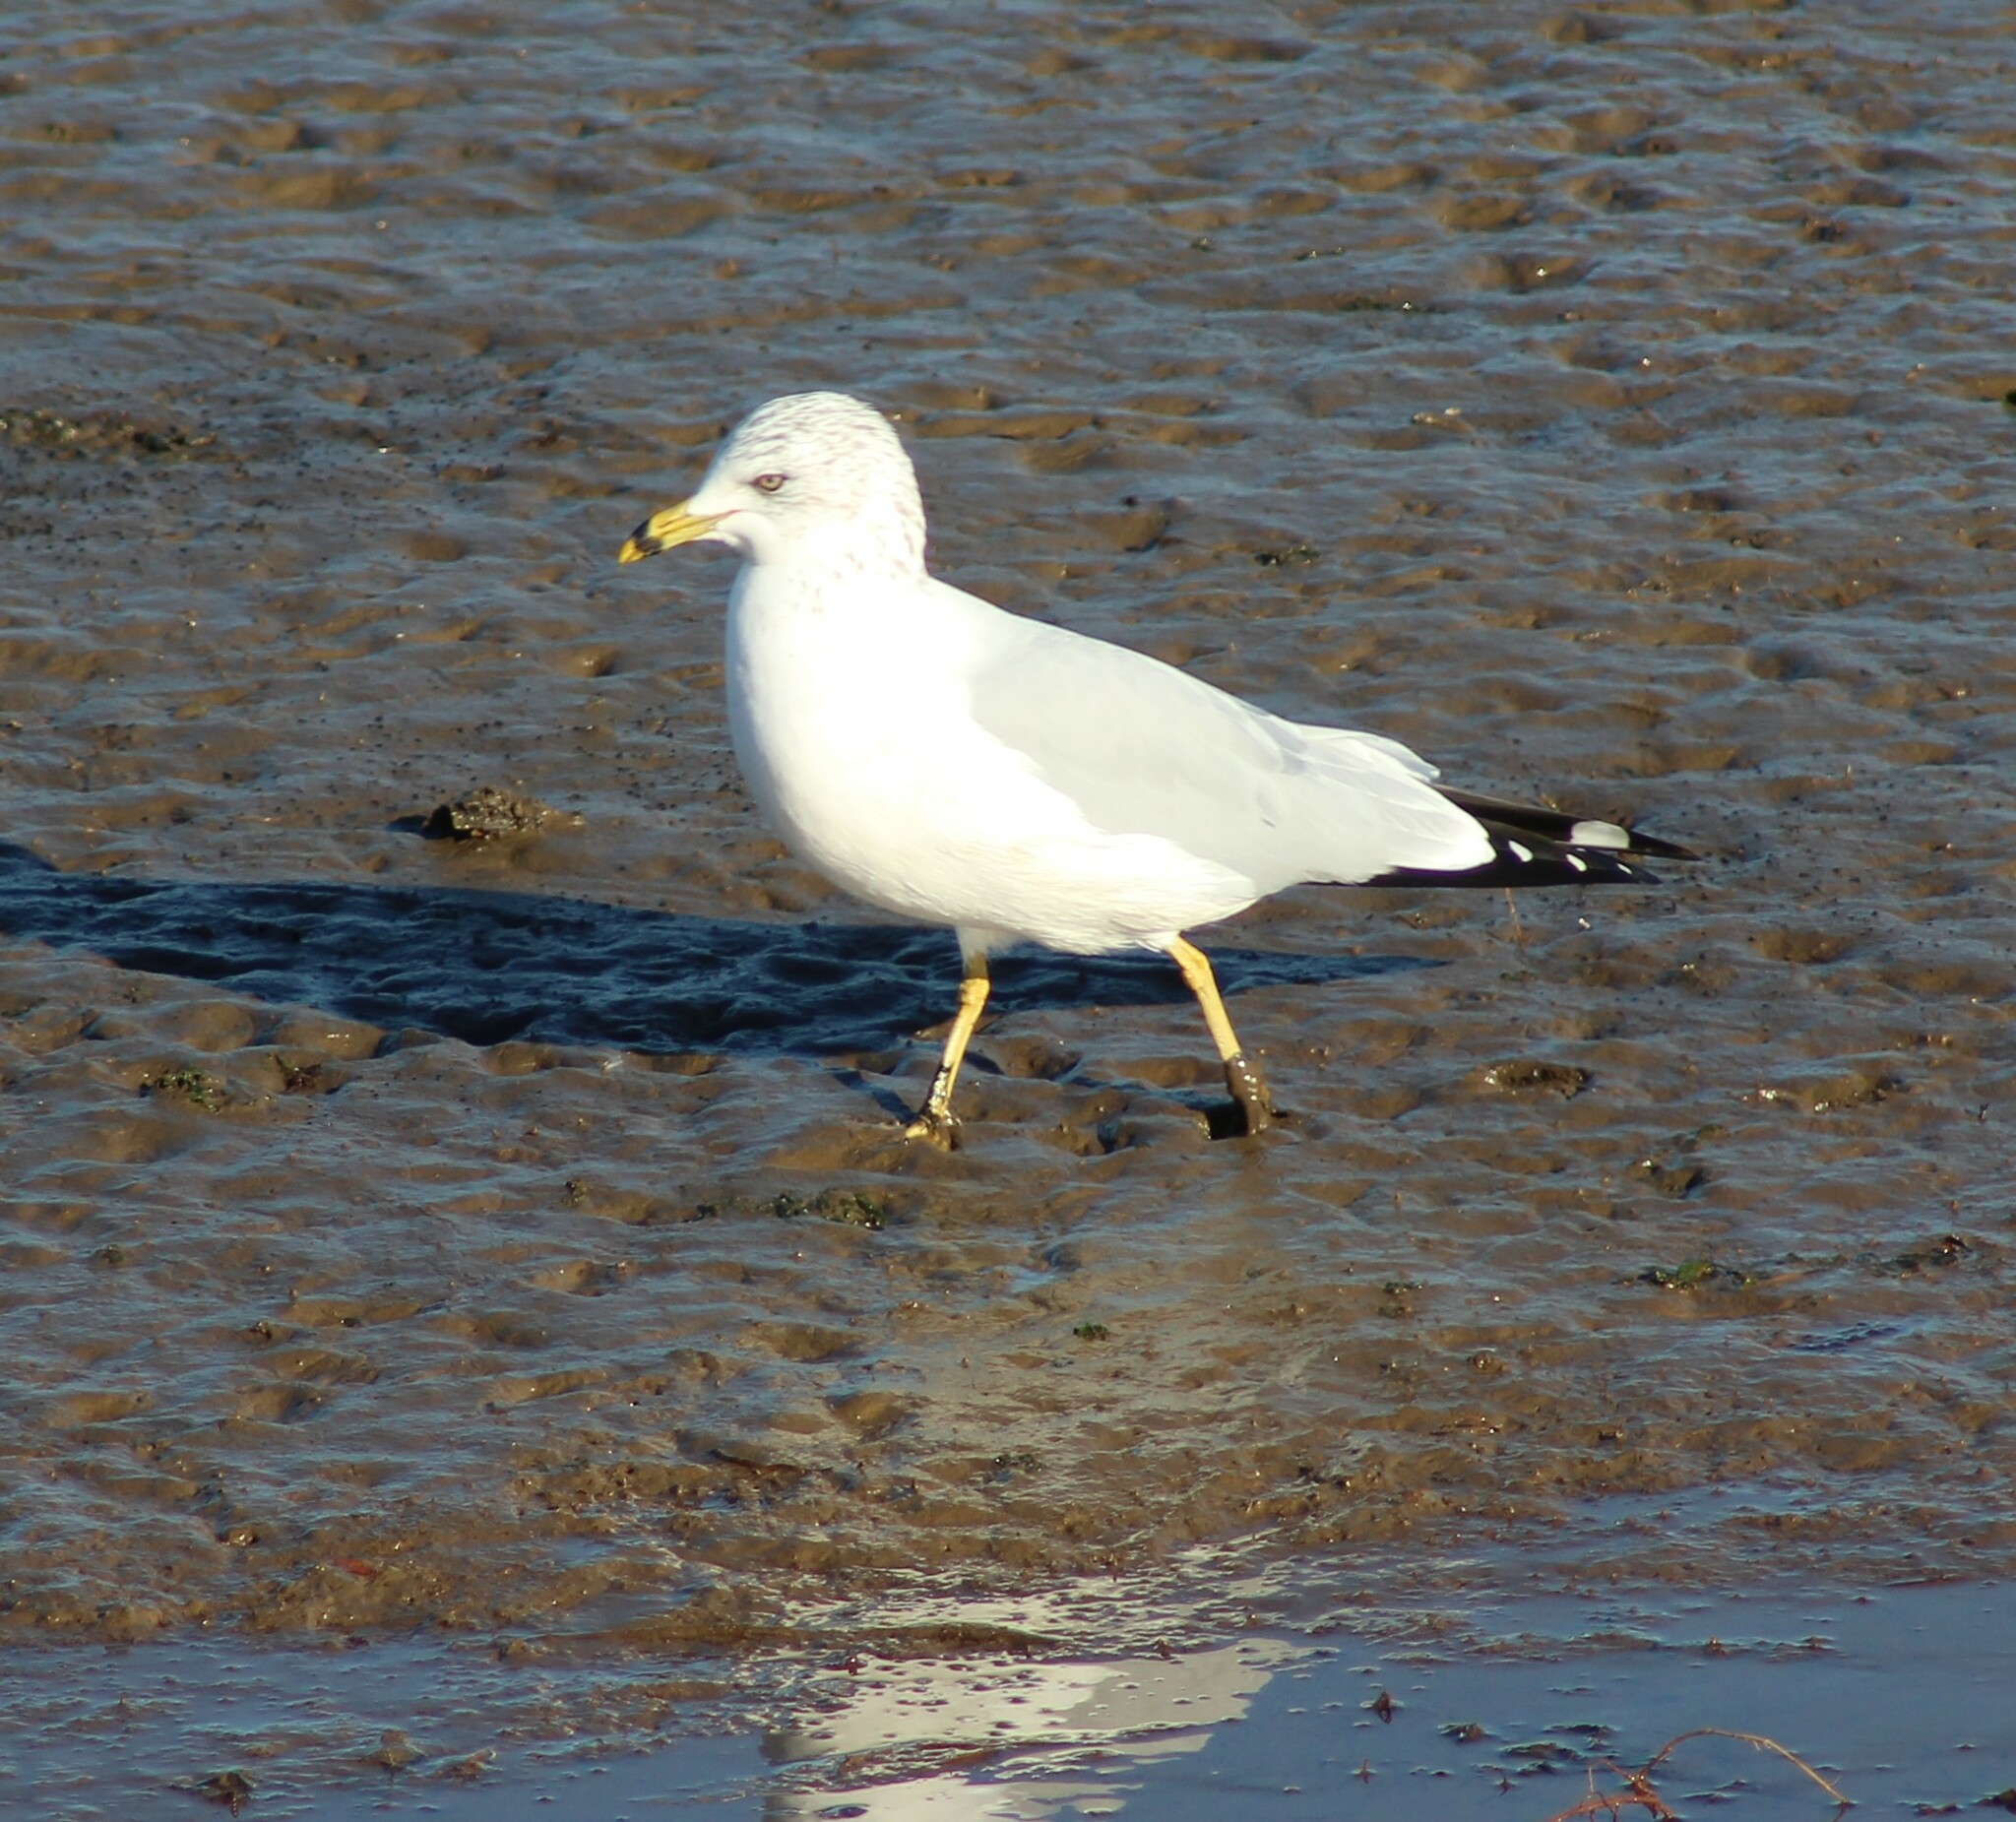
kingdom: Animalia
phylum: Chordata
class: Aves
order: Charadriiformes
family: Laridae
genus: Larus
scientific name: Larus delawarensis
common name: Ring-billed gull
